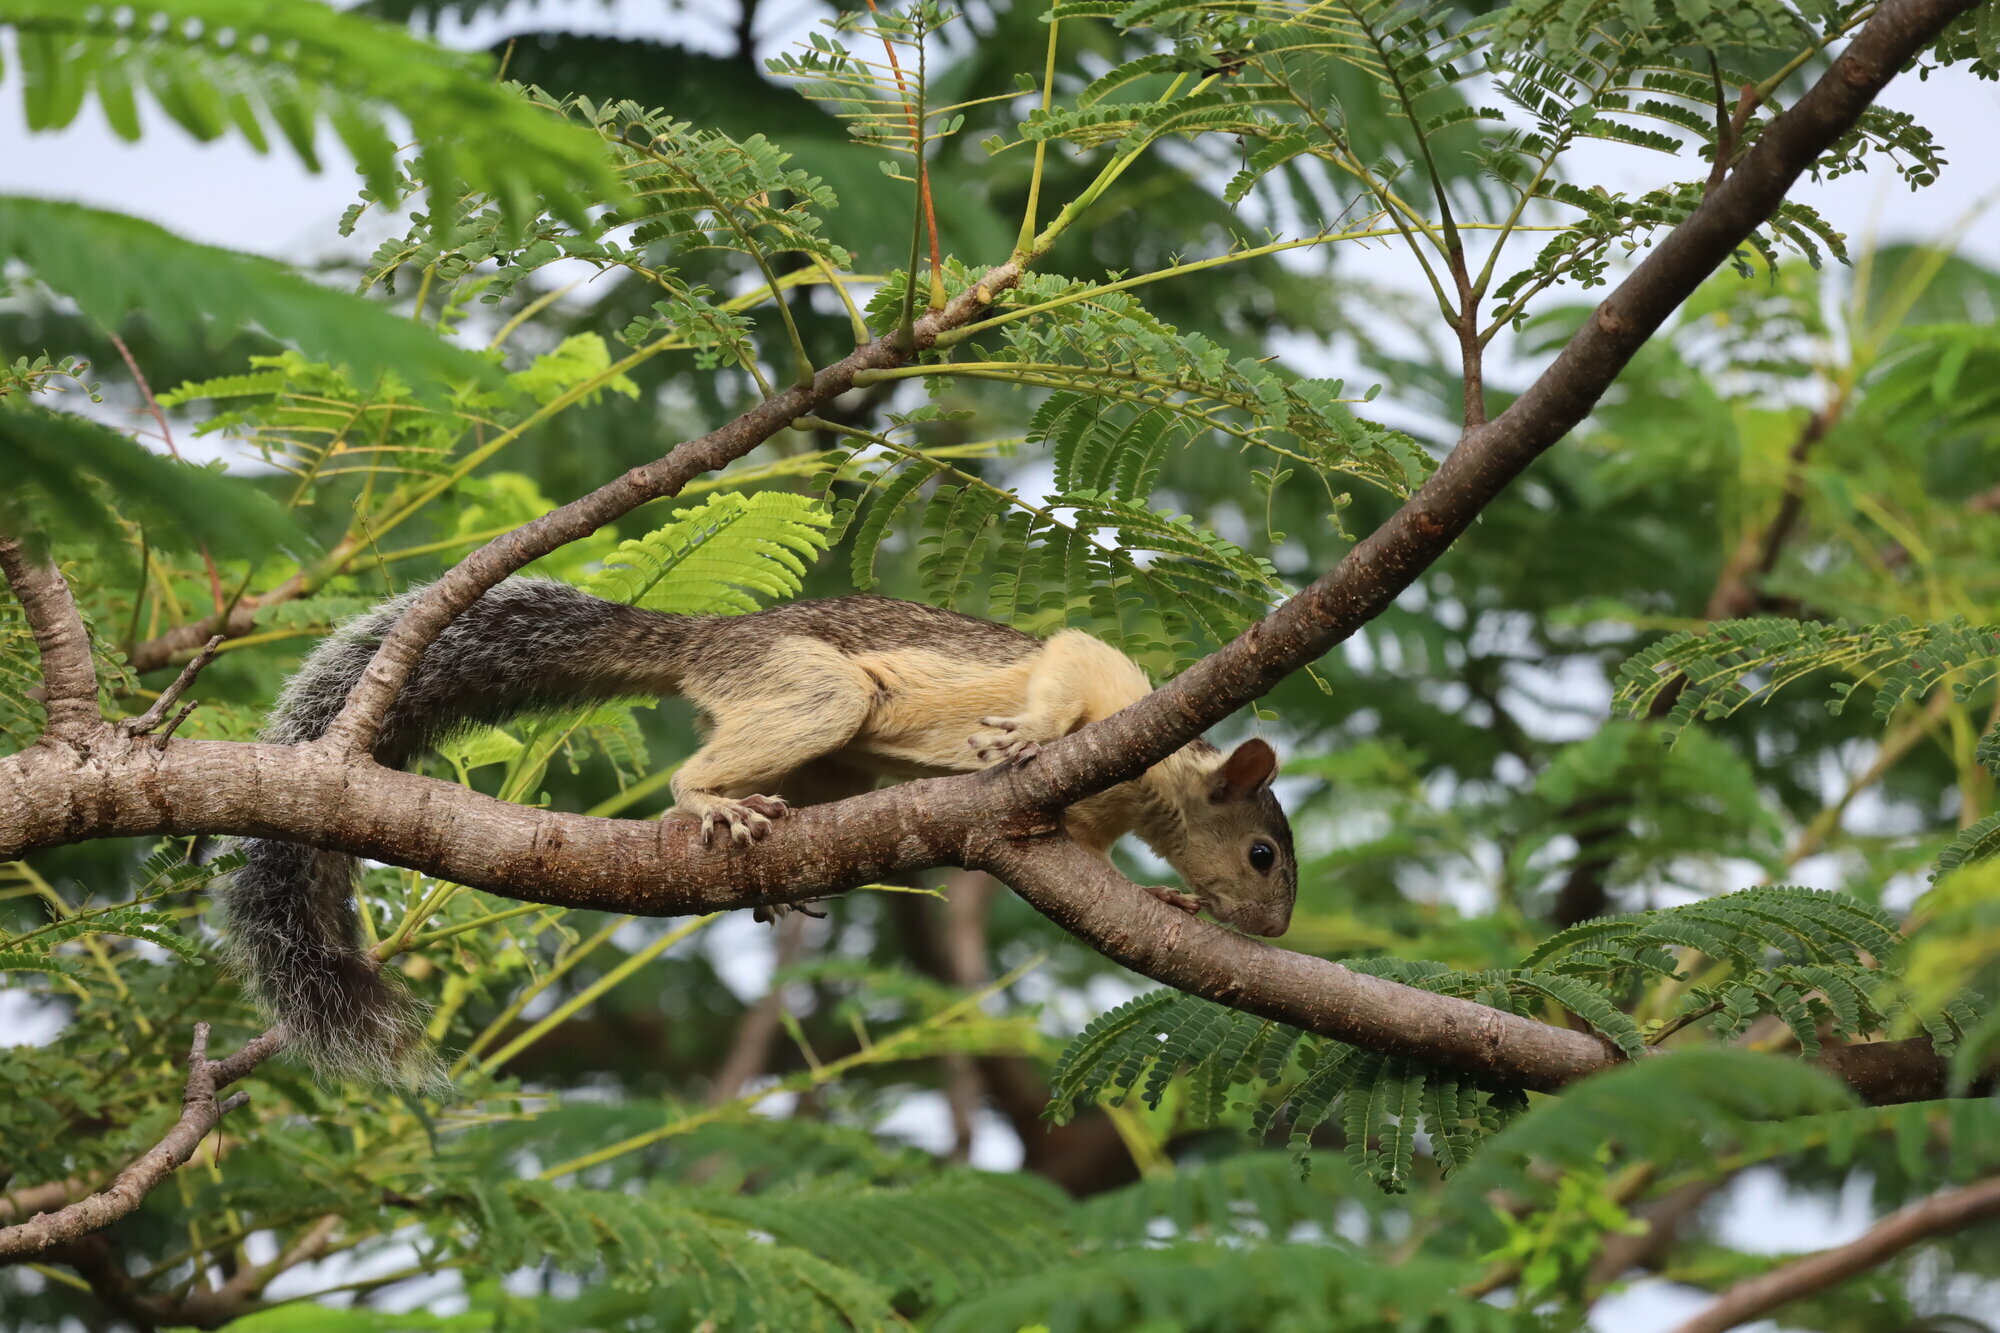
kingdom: Animalia
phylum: Chordata
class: Mammalia
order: Rodentia
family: Sciuridae
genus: Sciurus
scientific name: Sciurus variegatoides
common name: Variegated squirrel
